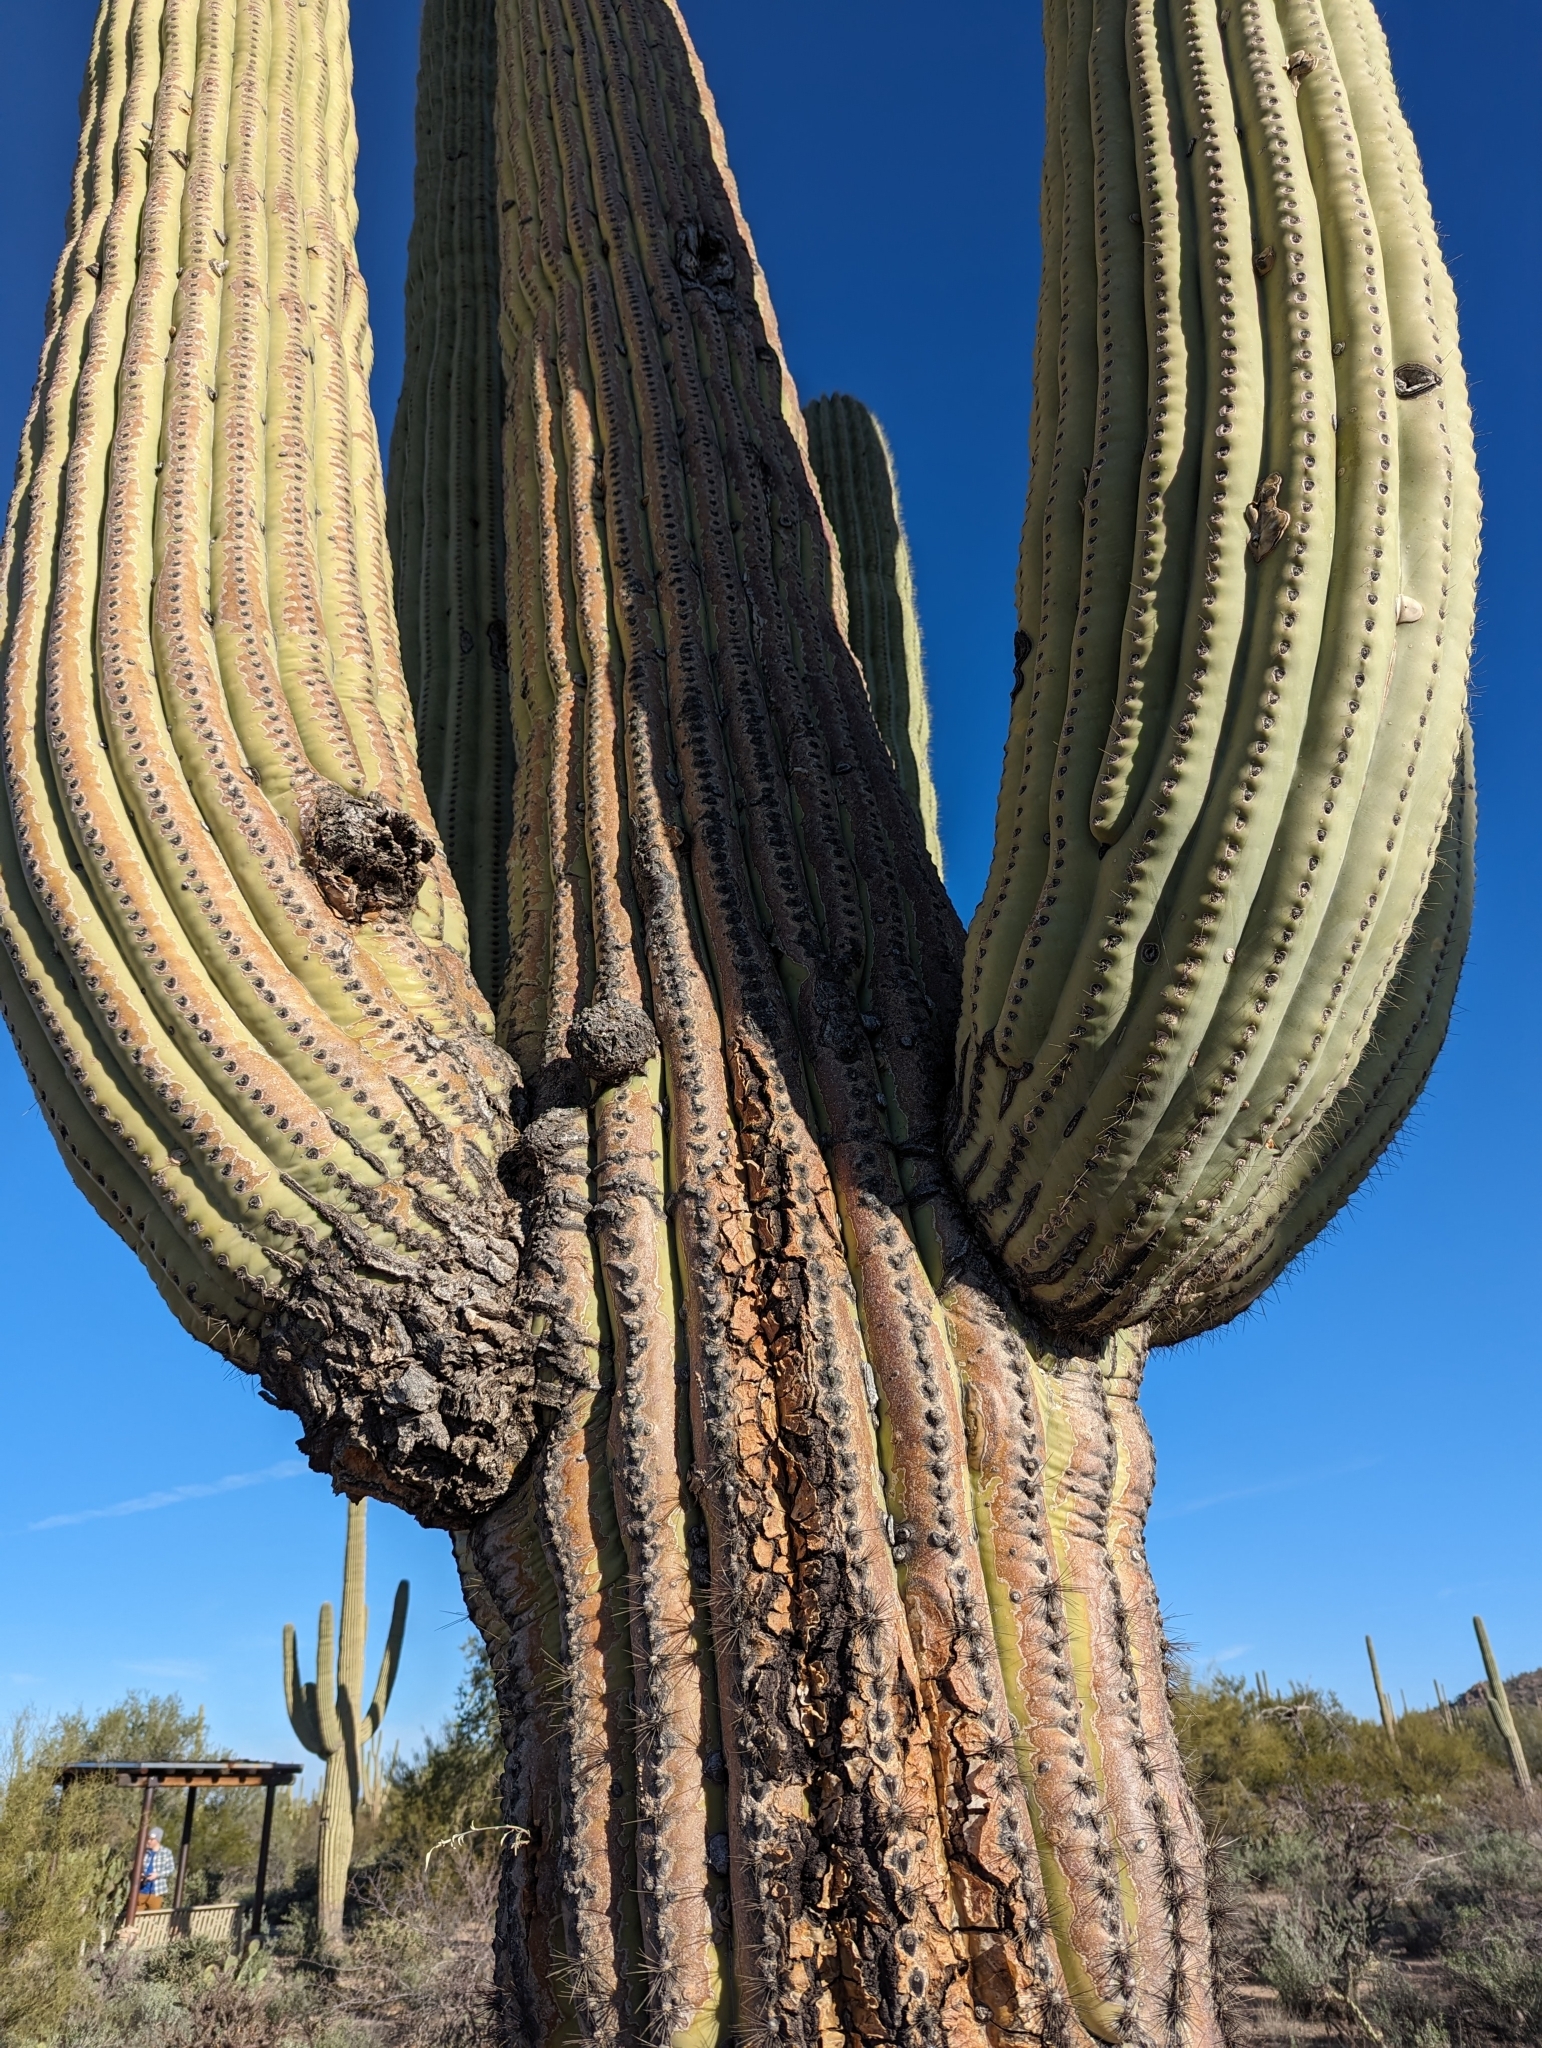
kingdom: Plantae
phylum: Tracheophyta
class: Magnoliopsida
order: Caryophyllales
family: Cactaceae
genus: Carnegiea
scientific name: Carnegiea gigantea
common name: Saguaro
